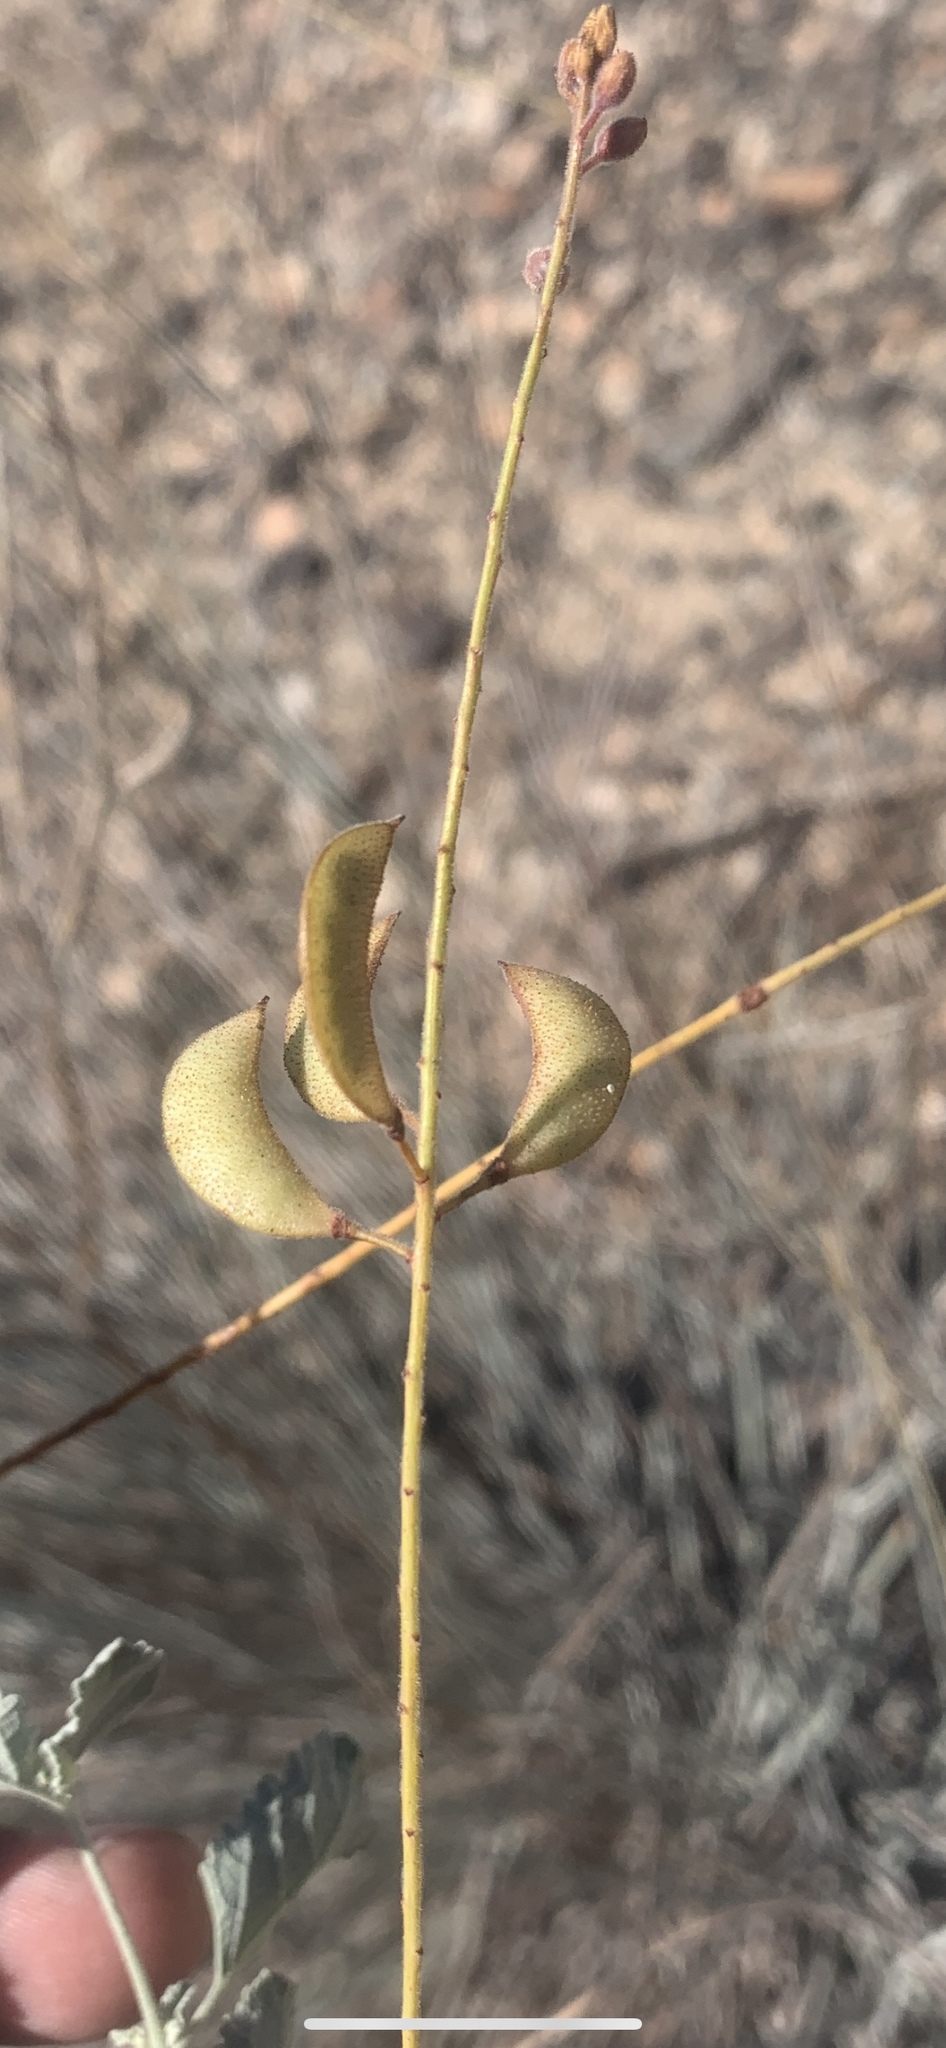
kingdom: Plantae
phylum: Tracheophyta
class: Magnoliopsida
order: Fabales
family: Fabaceae
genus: Hoffmannseggia
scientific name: Hoffmannseggia microphylla
